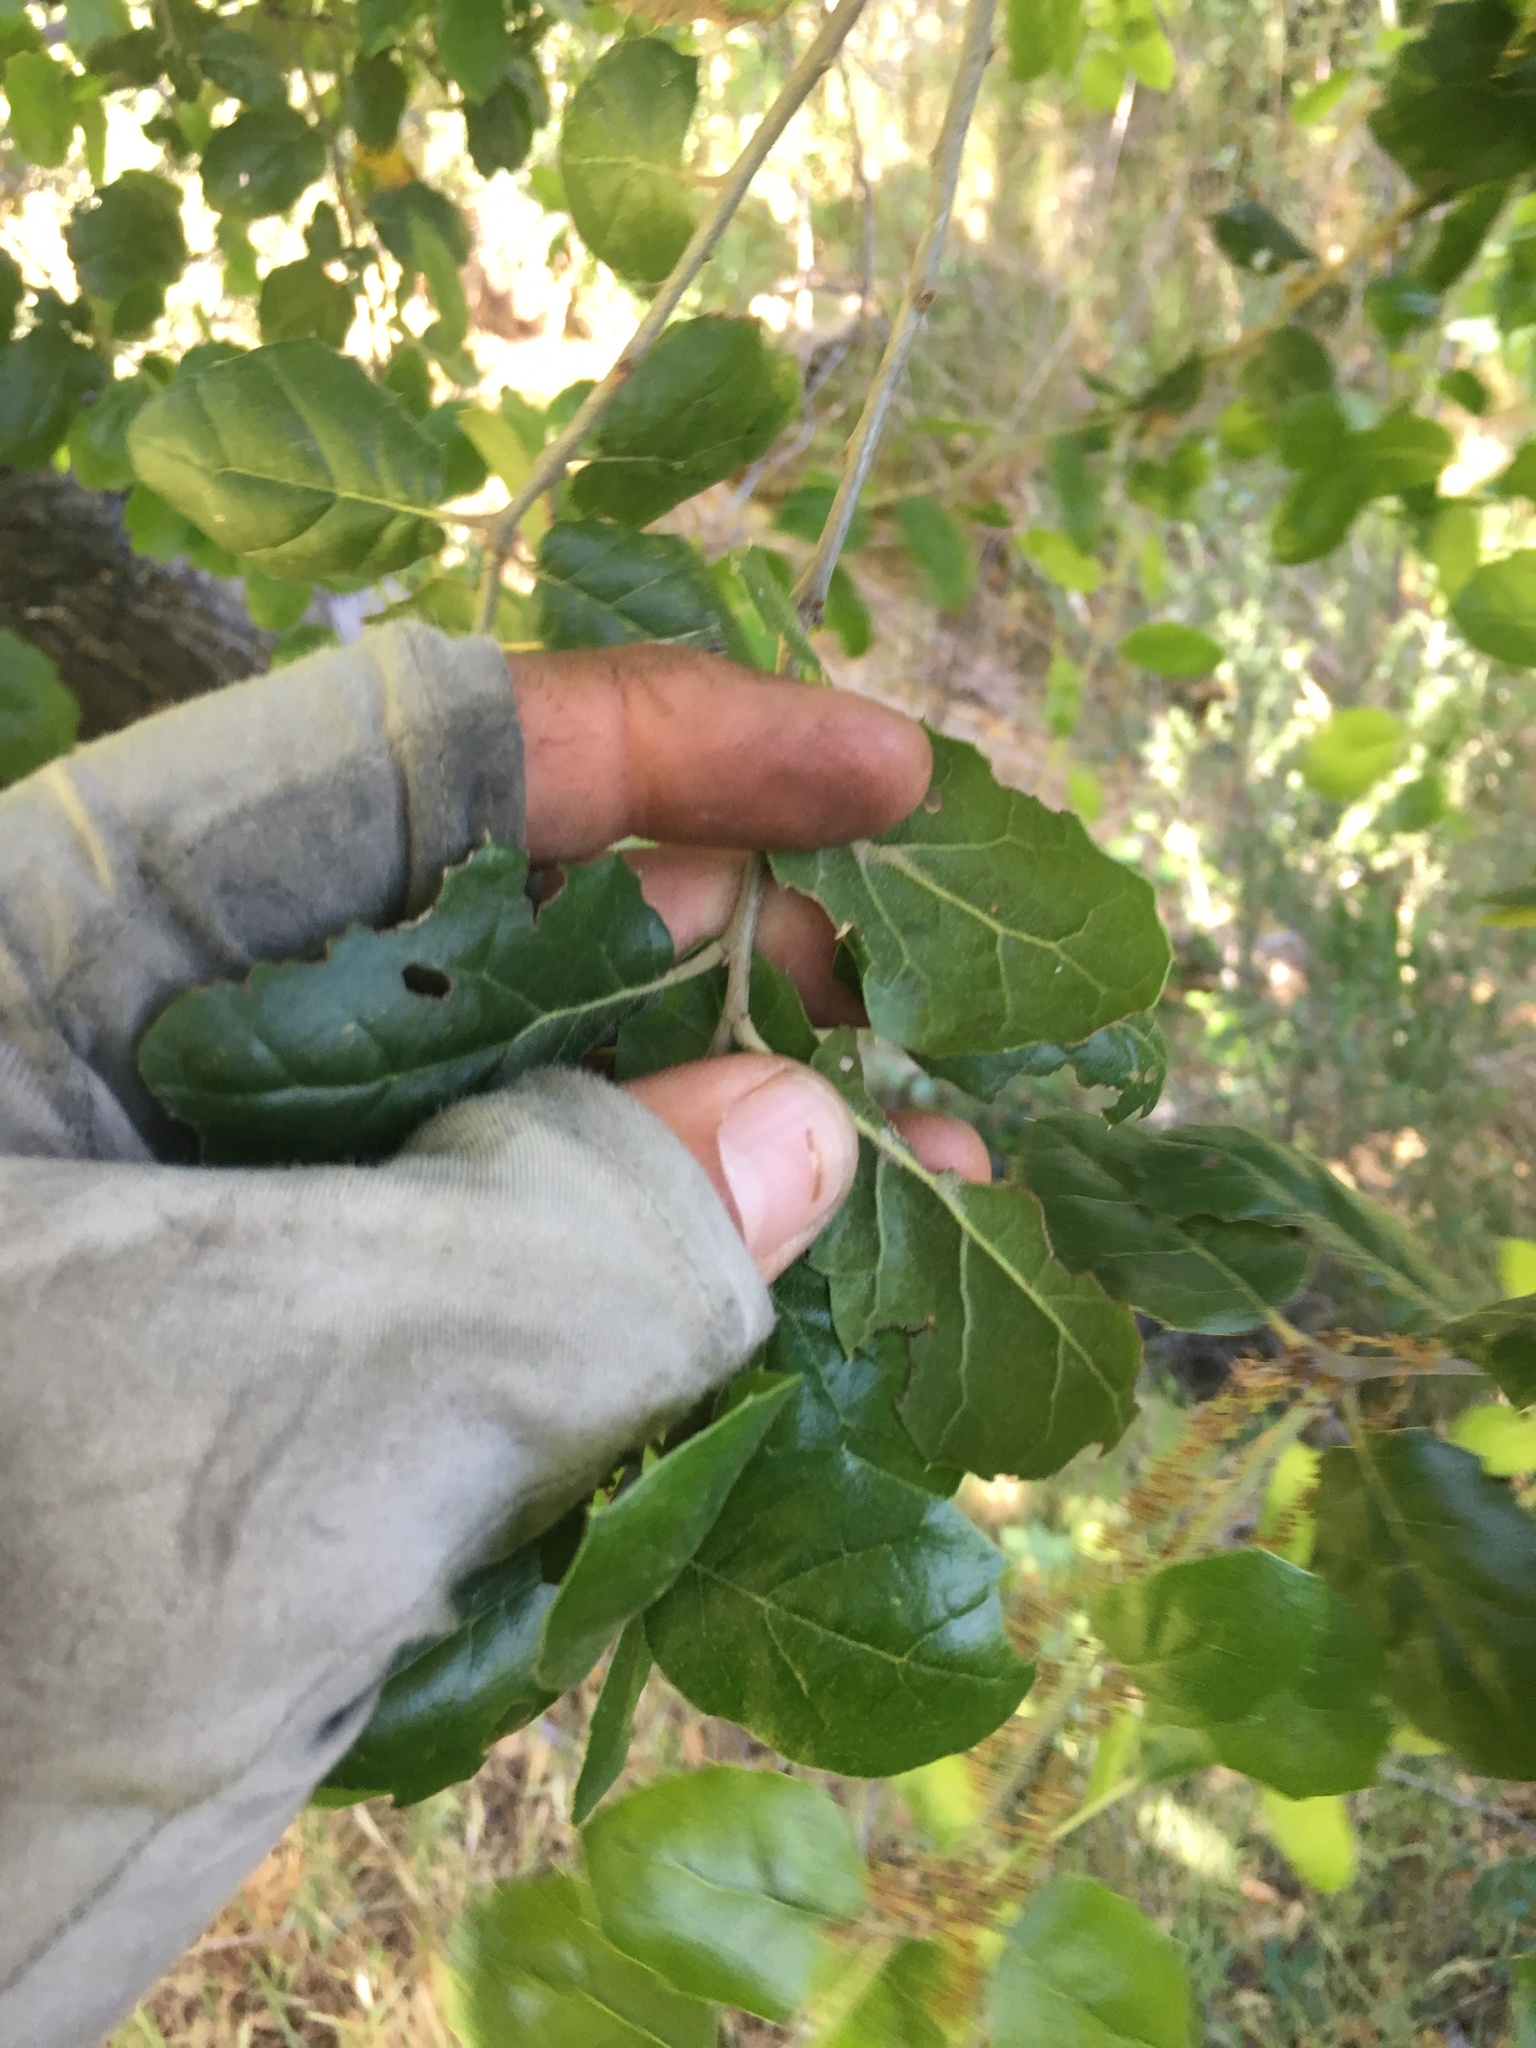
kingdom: Plantae
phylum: Tracheophyta
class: Magnoliopsida
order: Fagales
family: Fagaceae
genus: Quercus
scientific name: Quercus agrifolia
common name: California live oak
